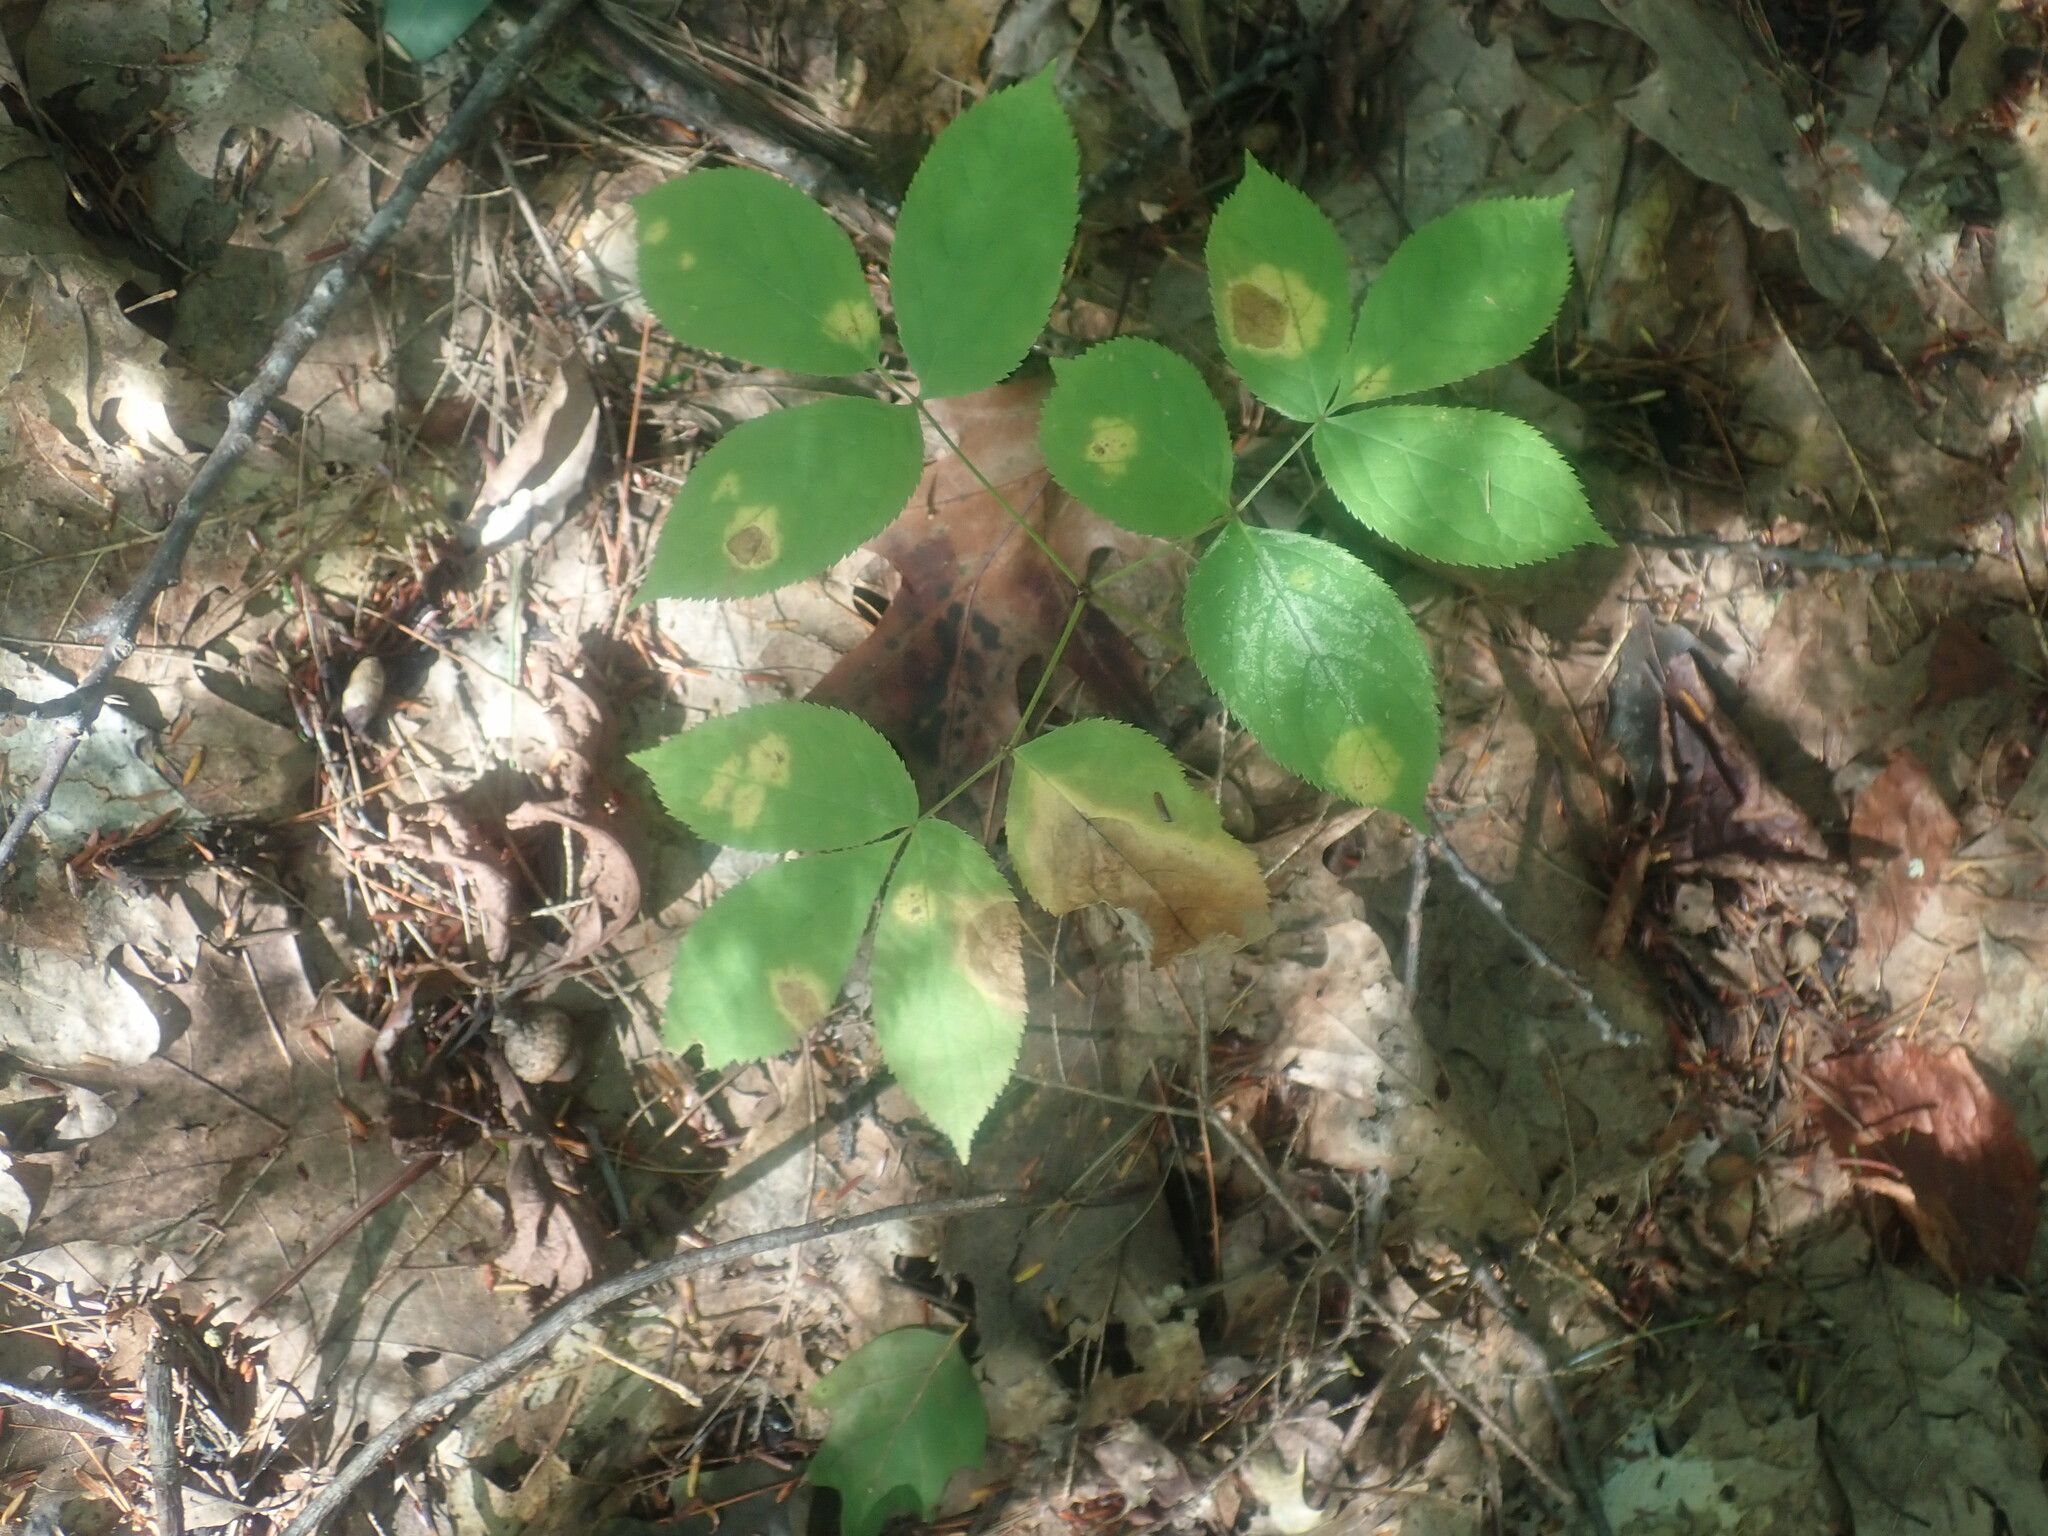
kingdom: Plantae
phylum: Tracheophyta
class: Magnoliopsida
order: Apiales
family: Araliaceae
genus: Aralia
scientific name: Aralia nudicaulis
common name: Wild sarsaparilla
